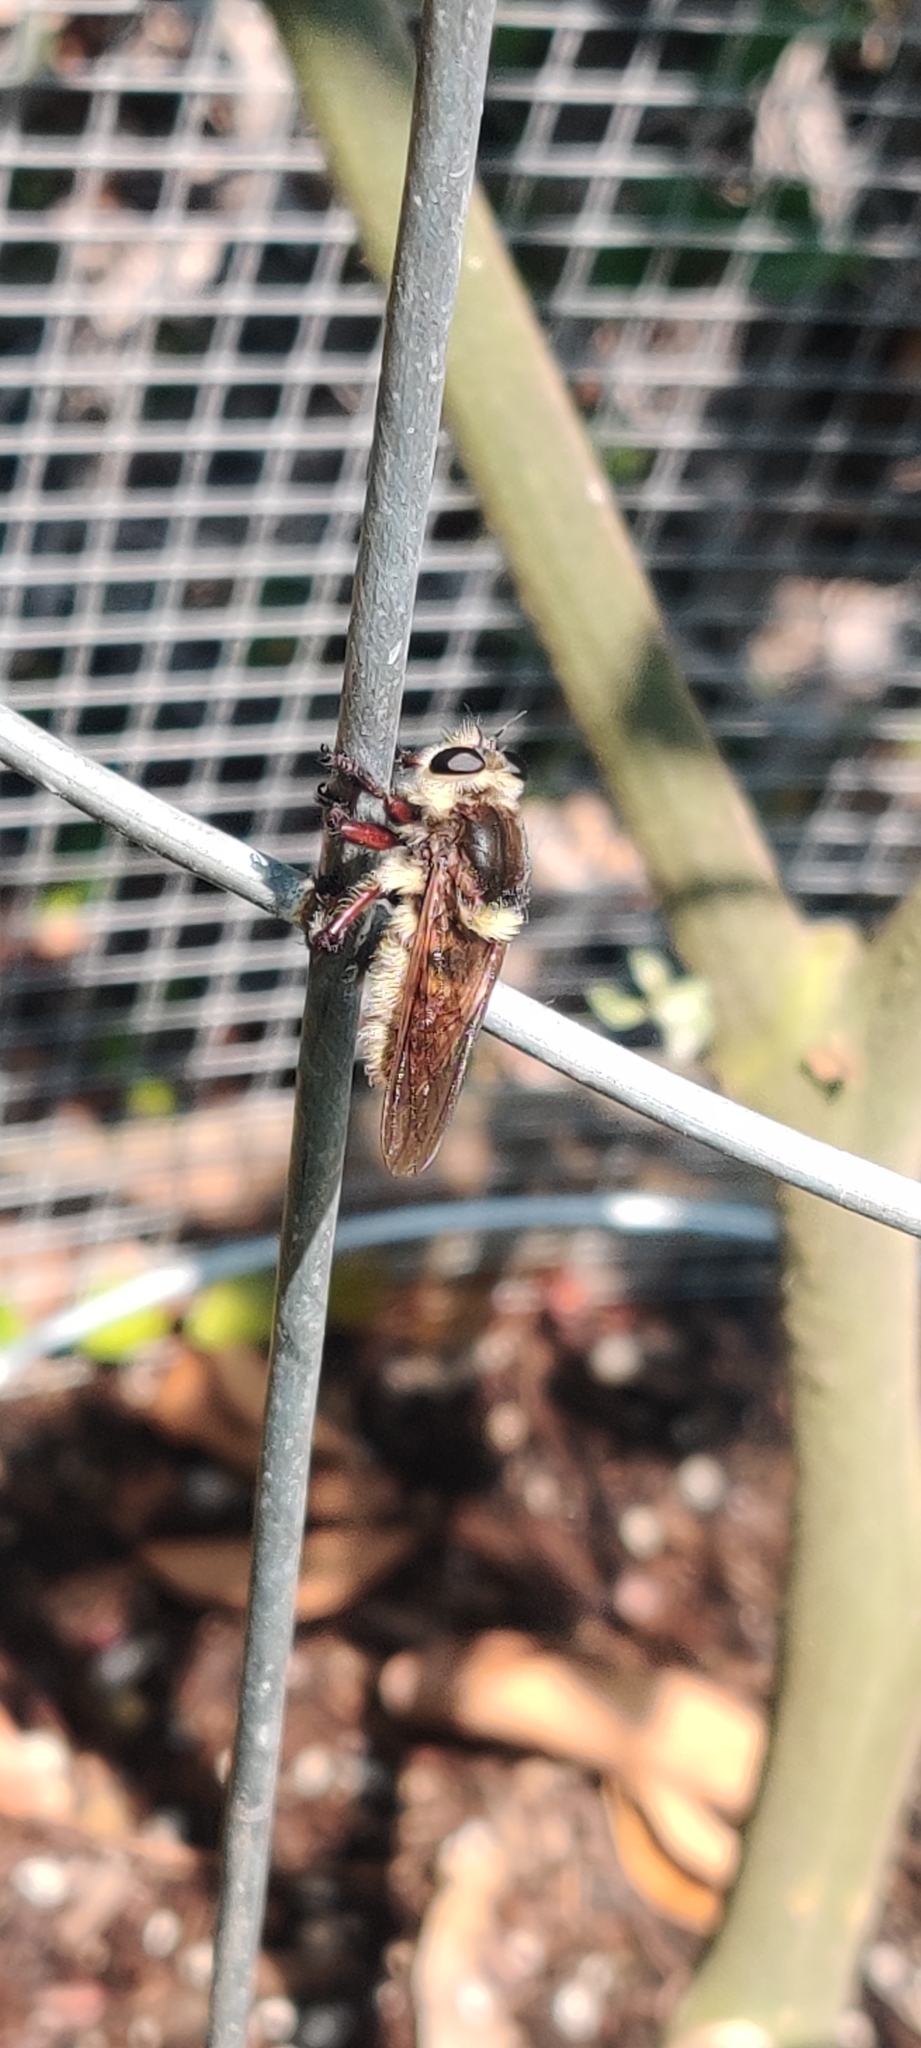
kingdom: Animalia
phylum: Arthropoda
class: Insecta
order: Diptera
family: Asilidae
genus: Mallophora
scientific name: Mallophora fautrix
